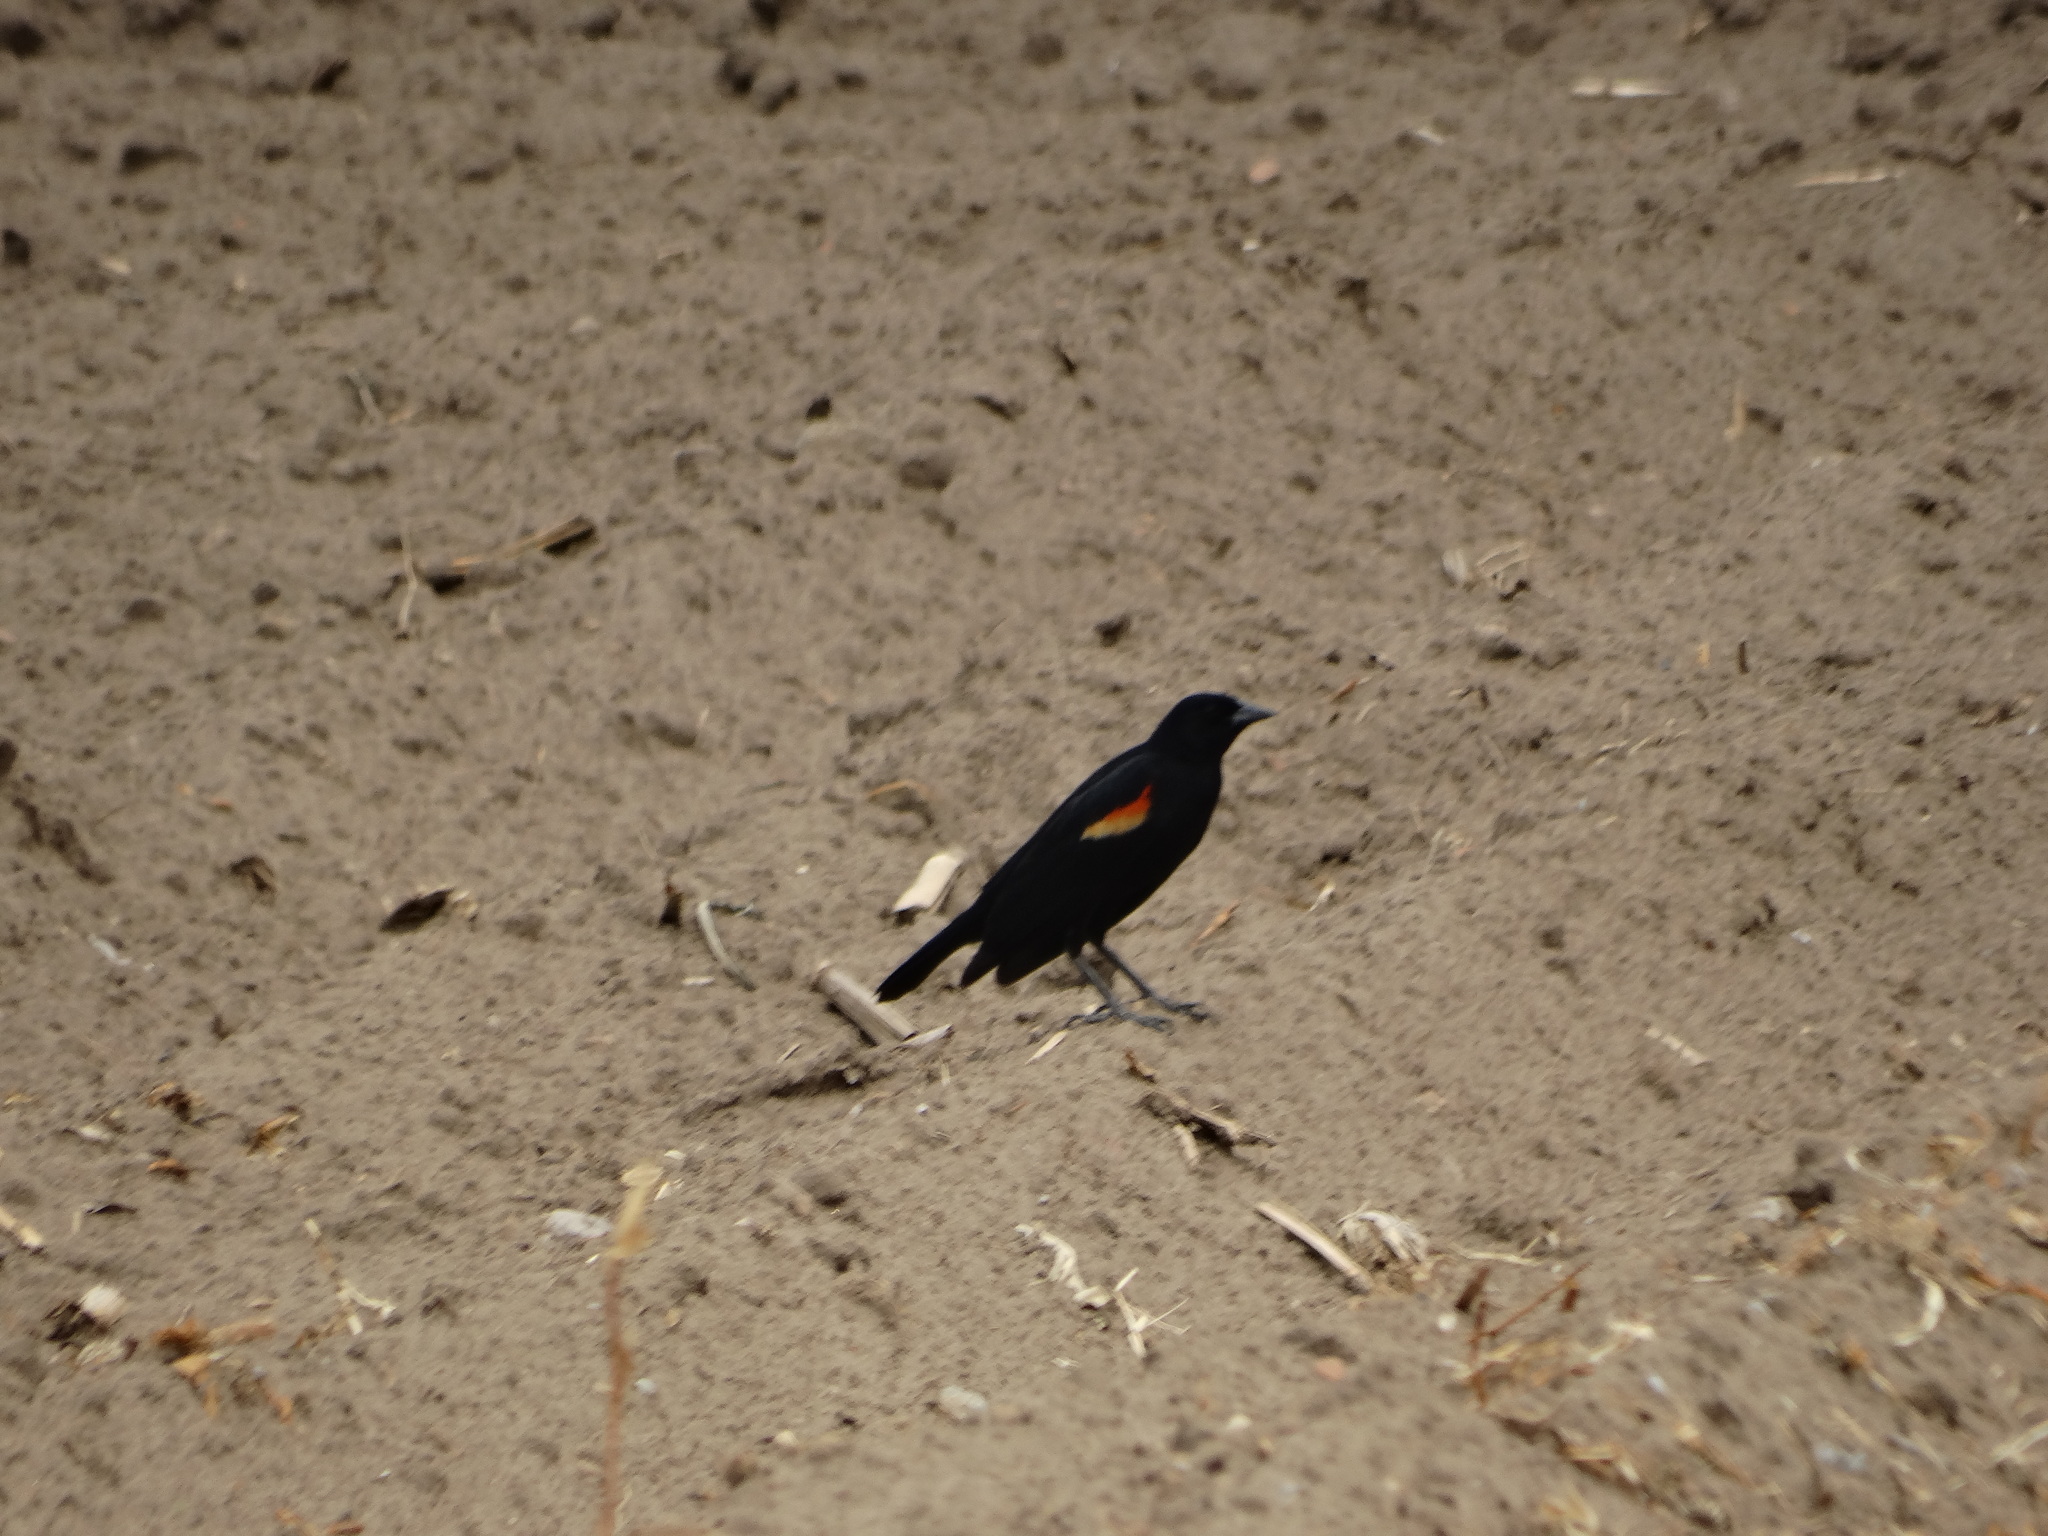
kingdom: Animalia
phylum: Chordata
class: Aves
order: Passeriformes
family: Icteridae
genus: Agelaius
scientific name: Agelaius phoeniceus
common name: Red-winged blackbird
